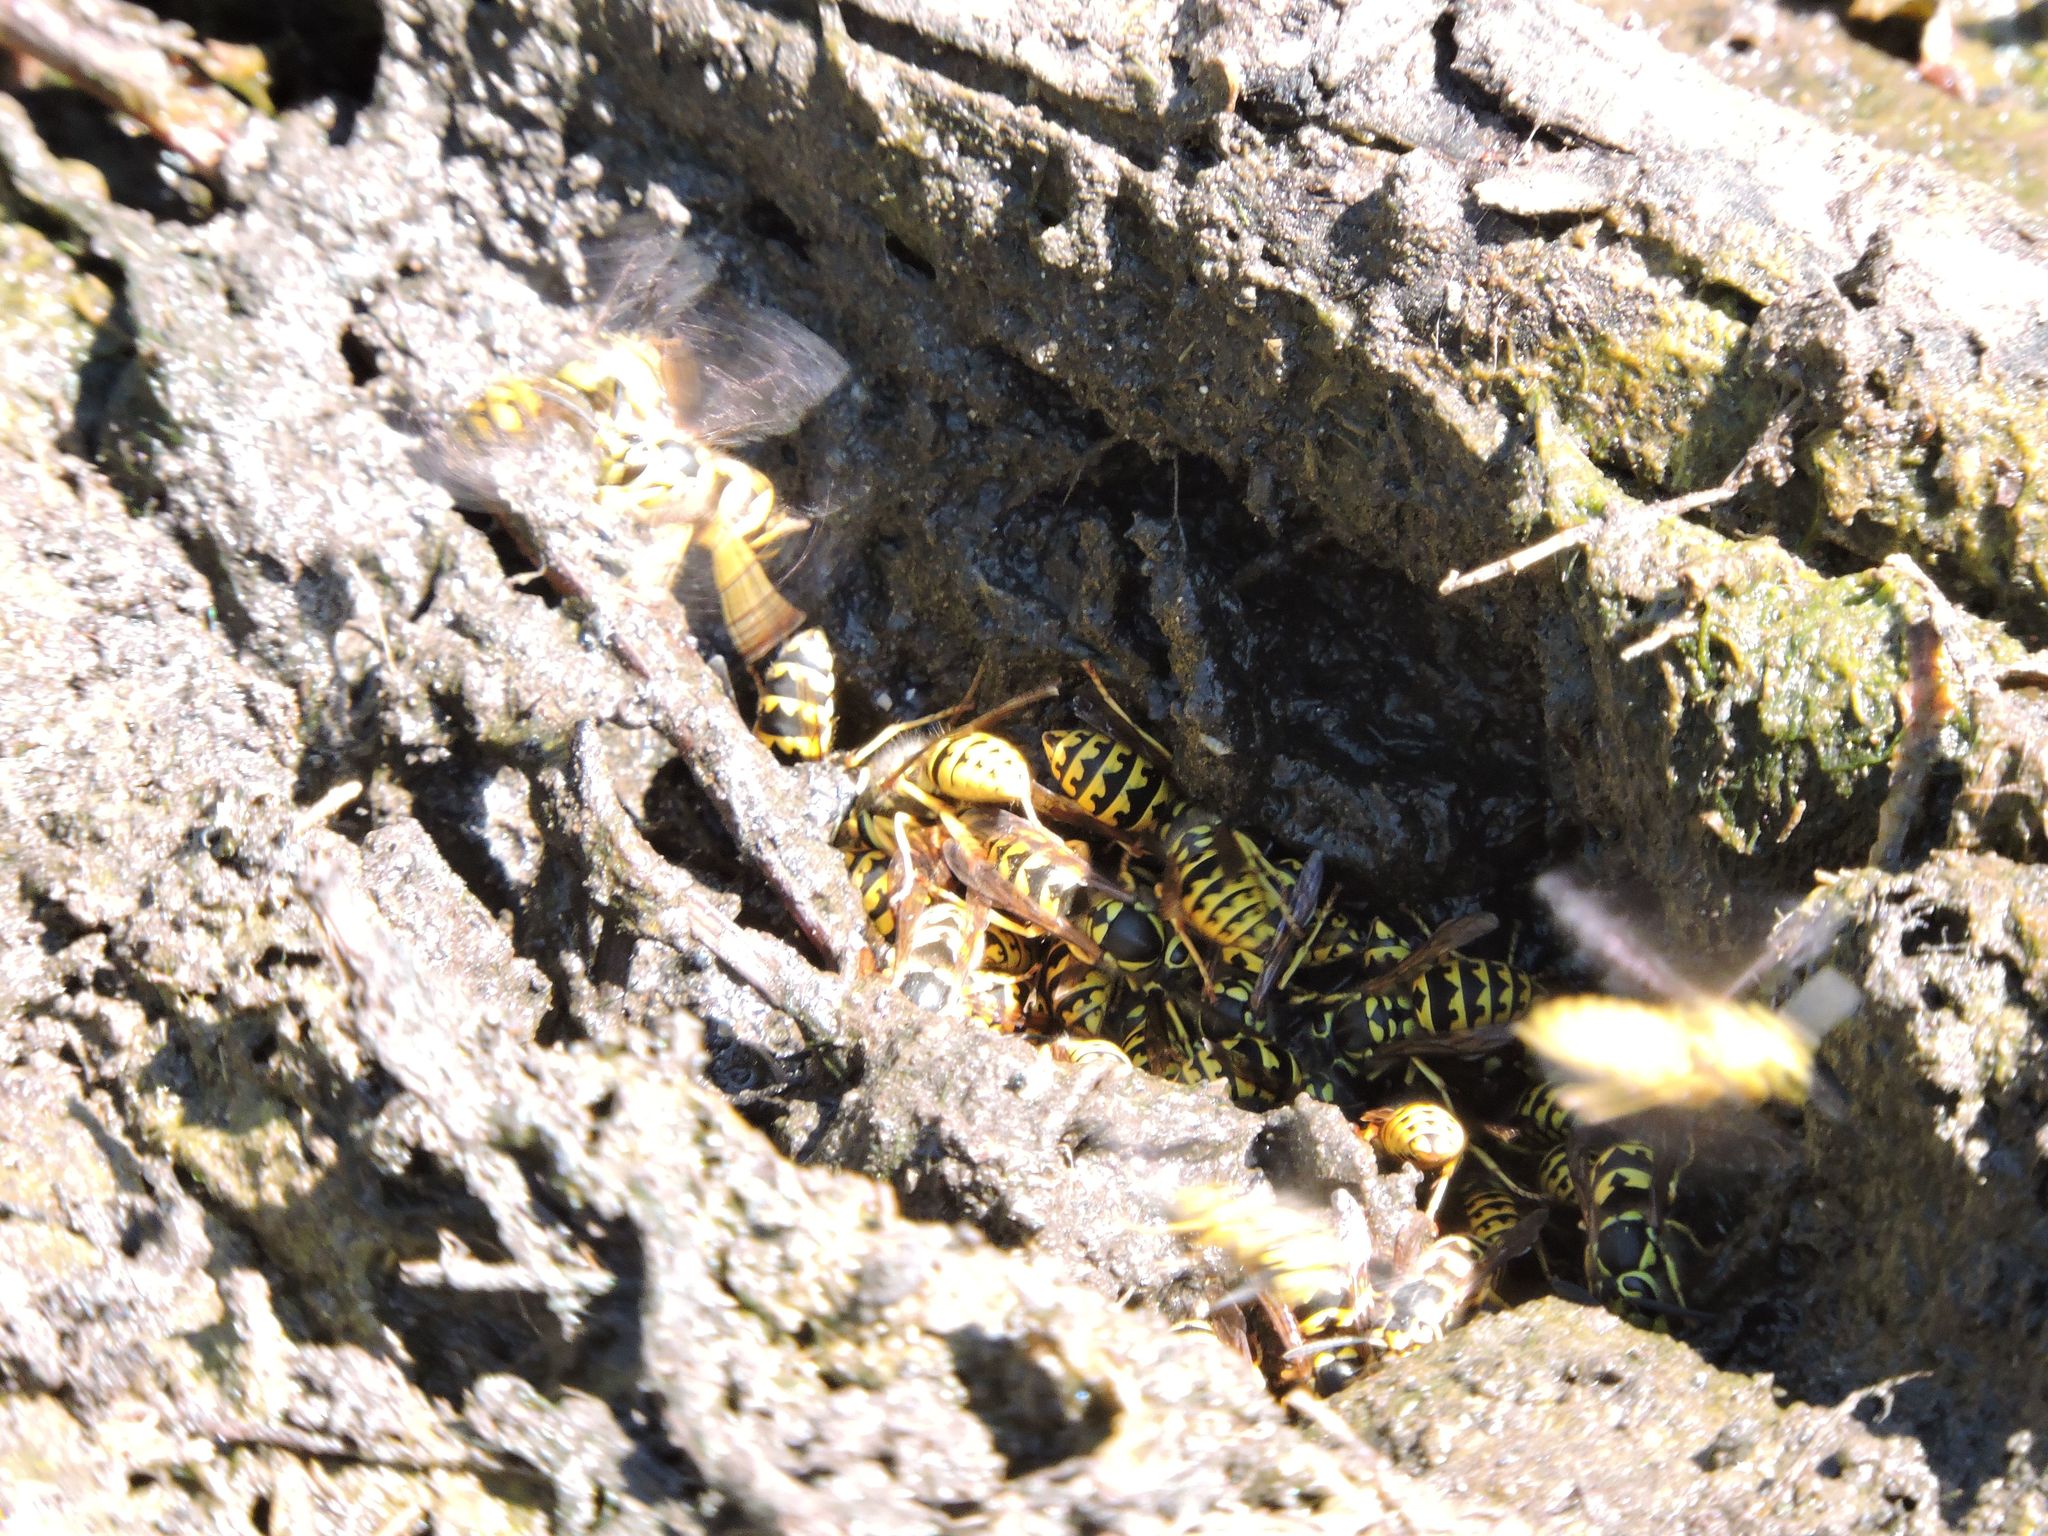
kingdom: Animalia
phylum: Arthropoda
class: Insecta
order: Hymenoptera
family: Vespidae
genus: Vespula
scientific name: Vespula pensylvanica
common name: Western yellowjacket
